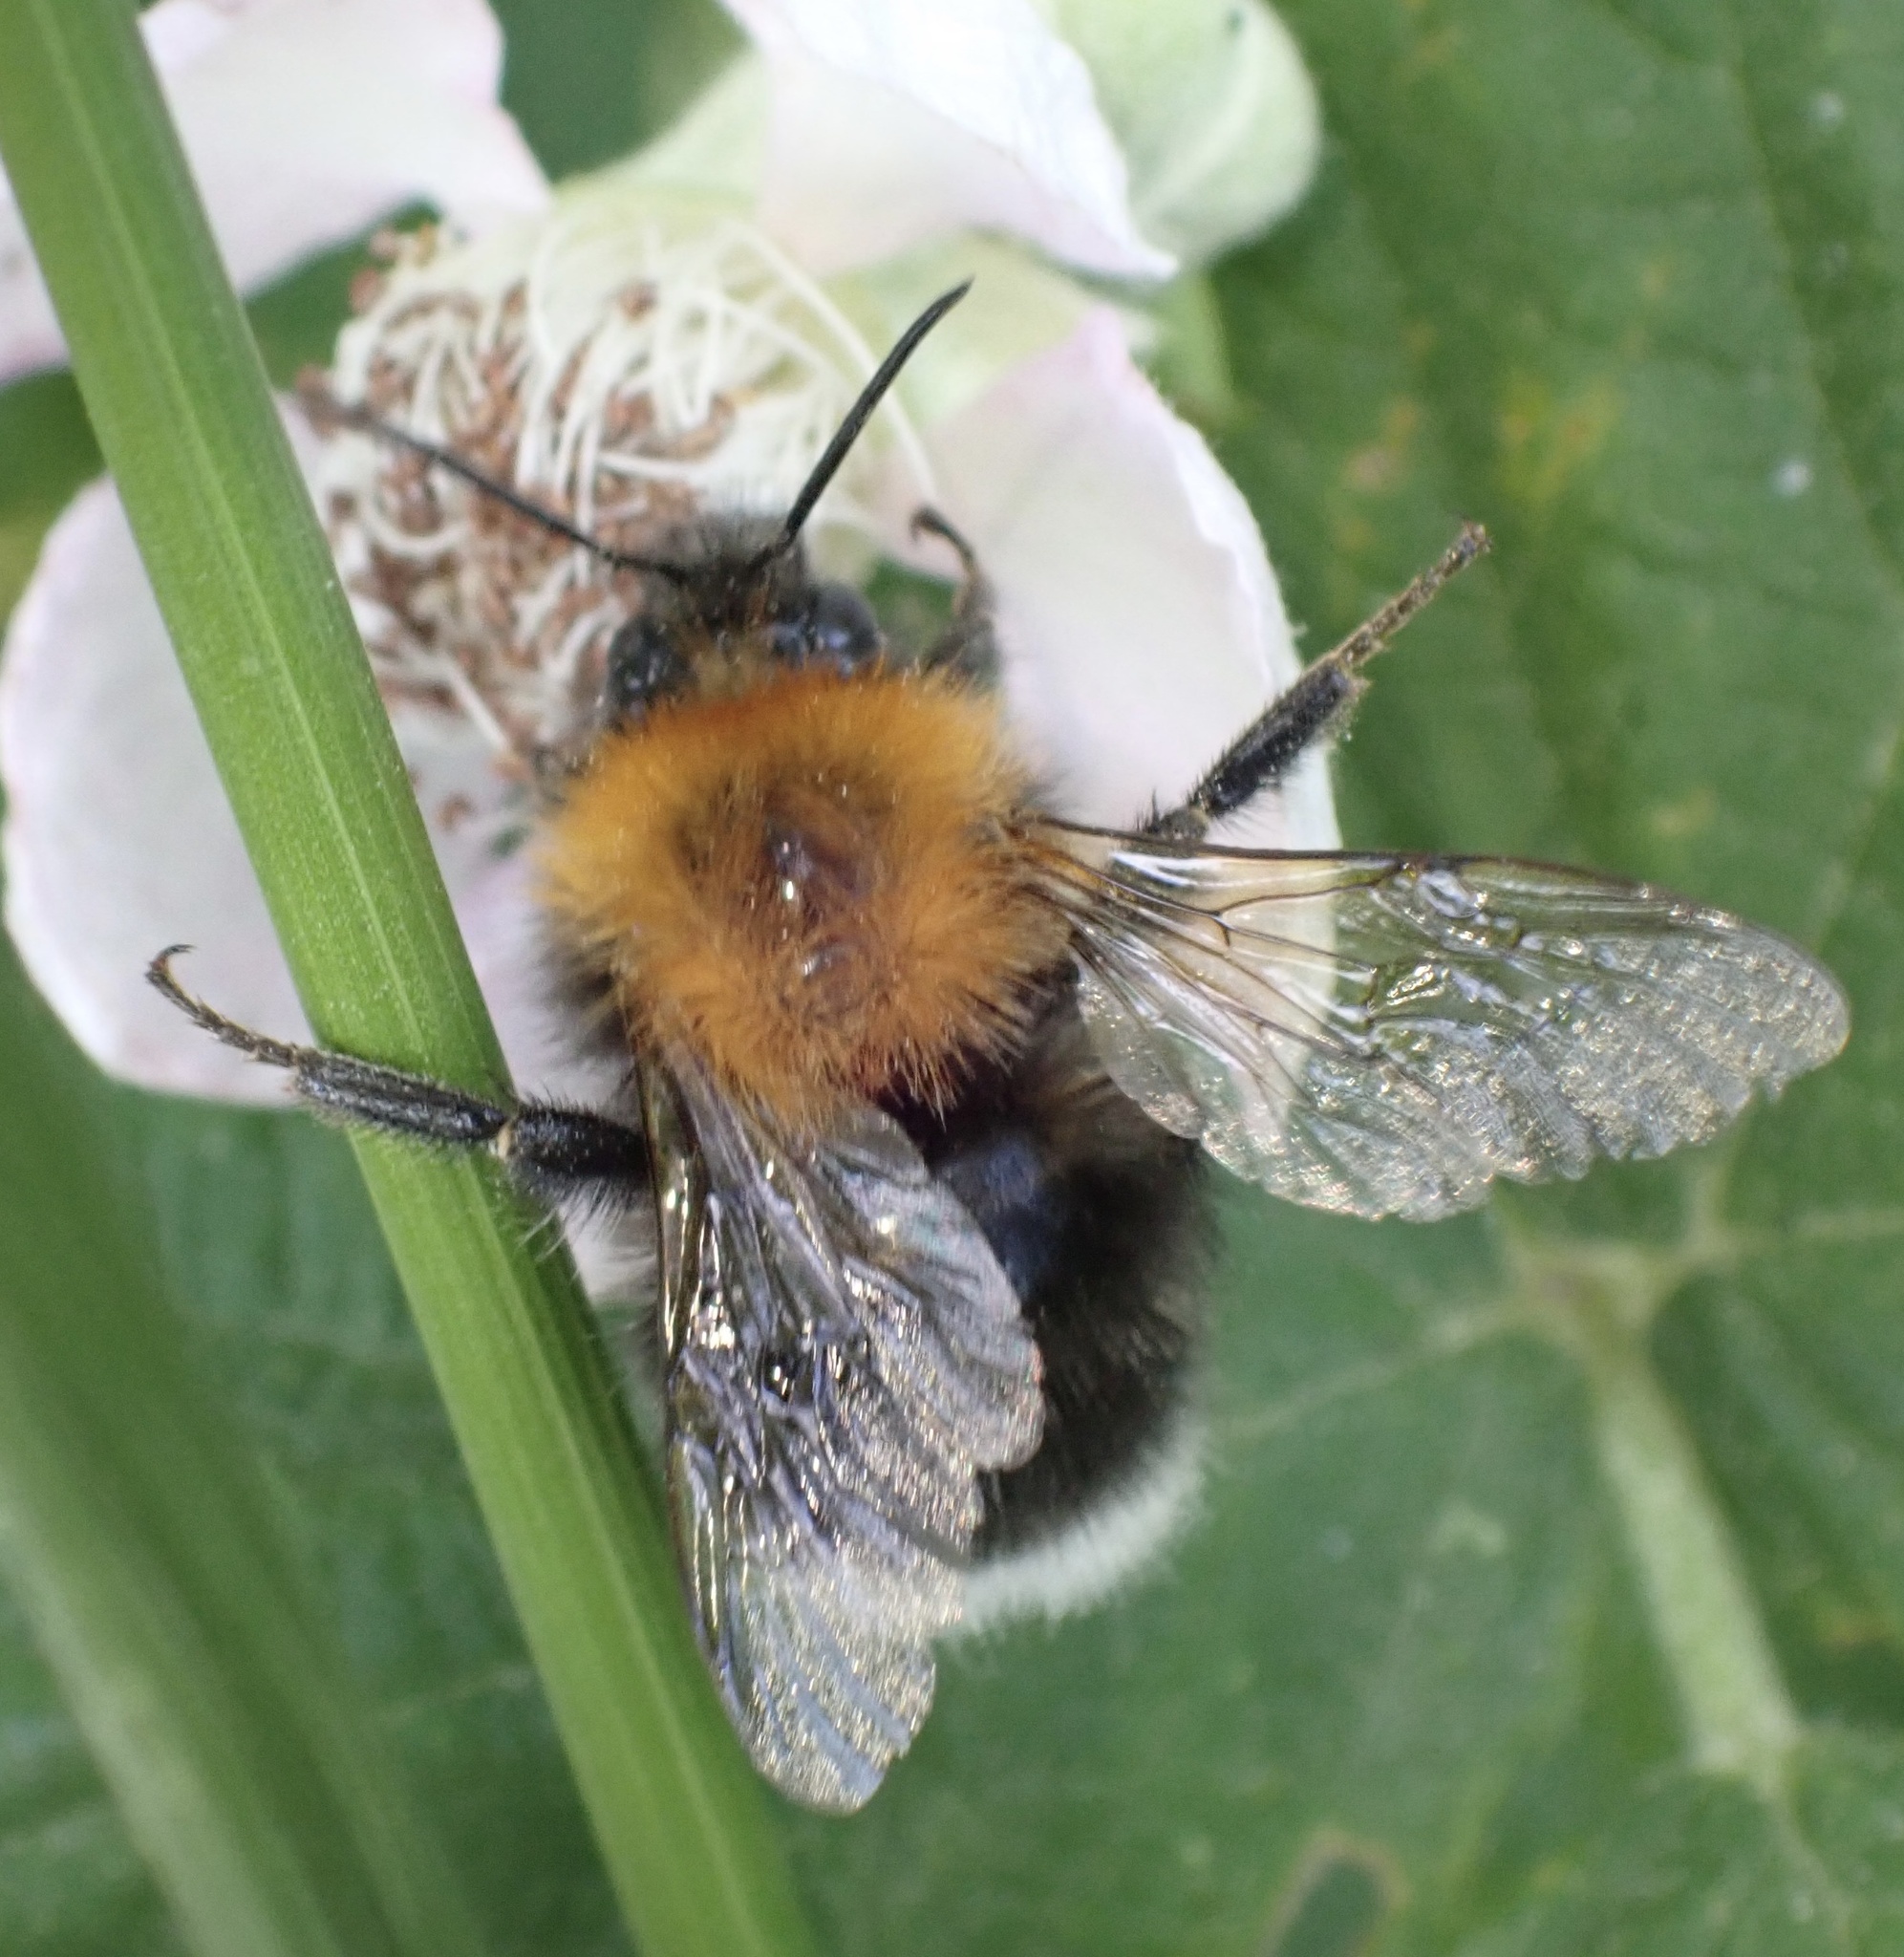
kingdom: Animalia
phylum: Arthropoda
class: Insecta
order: Hymenoptera
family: Apidae
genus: Bombus
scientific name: Bombus hypnorum
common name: New garden bumblebee
